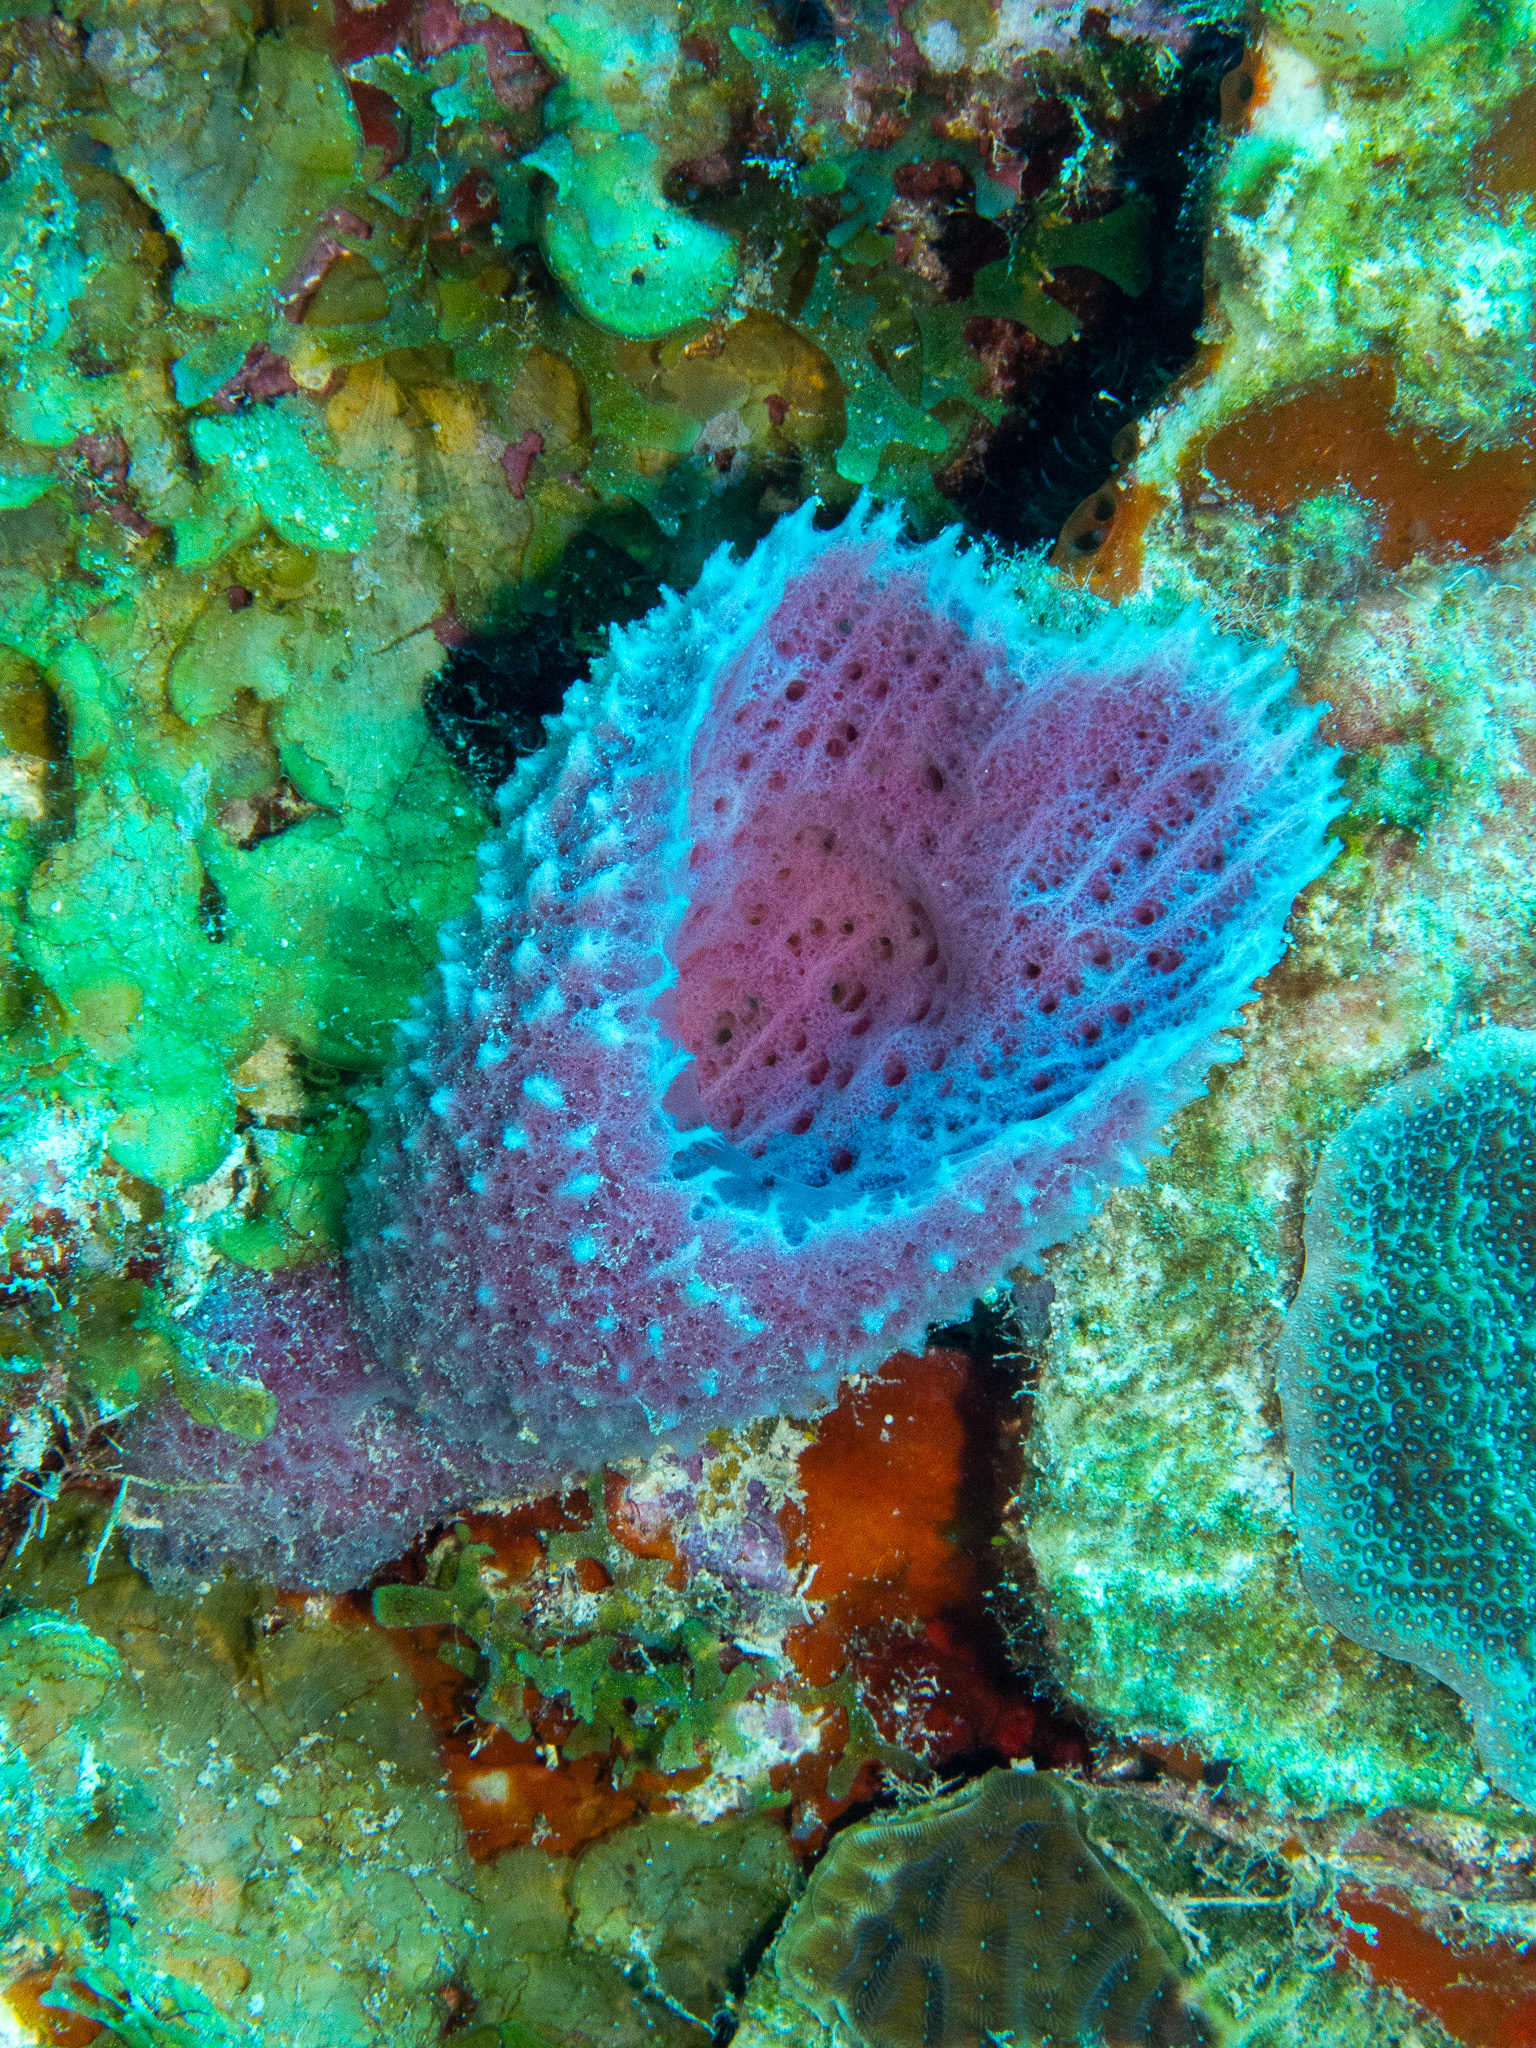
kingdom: Animalia
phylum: Porifera
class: Demospongiae
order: Haplosclerida
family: Niphatidae
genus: Niphates
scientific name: Niphates digitalis
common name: Pink vase sponge
